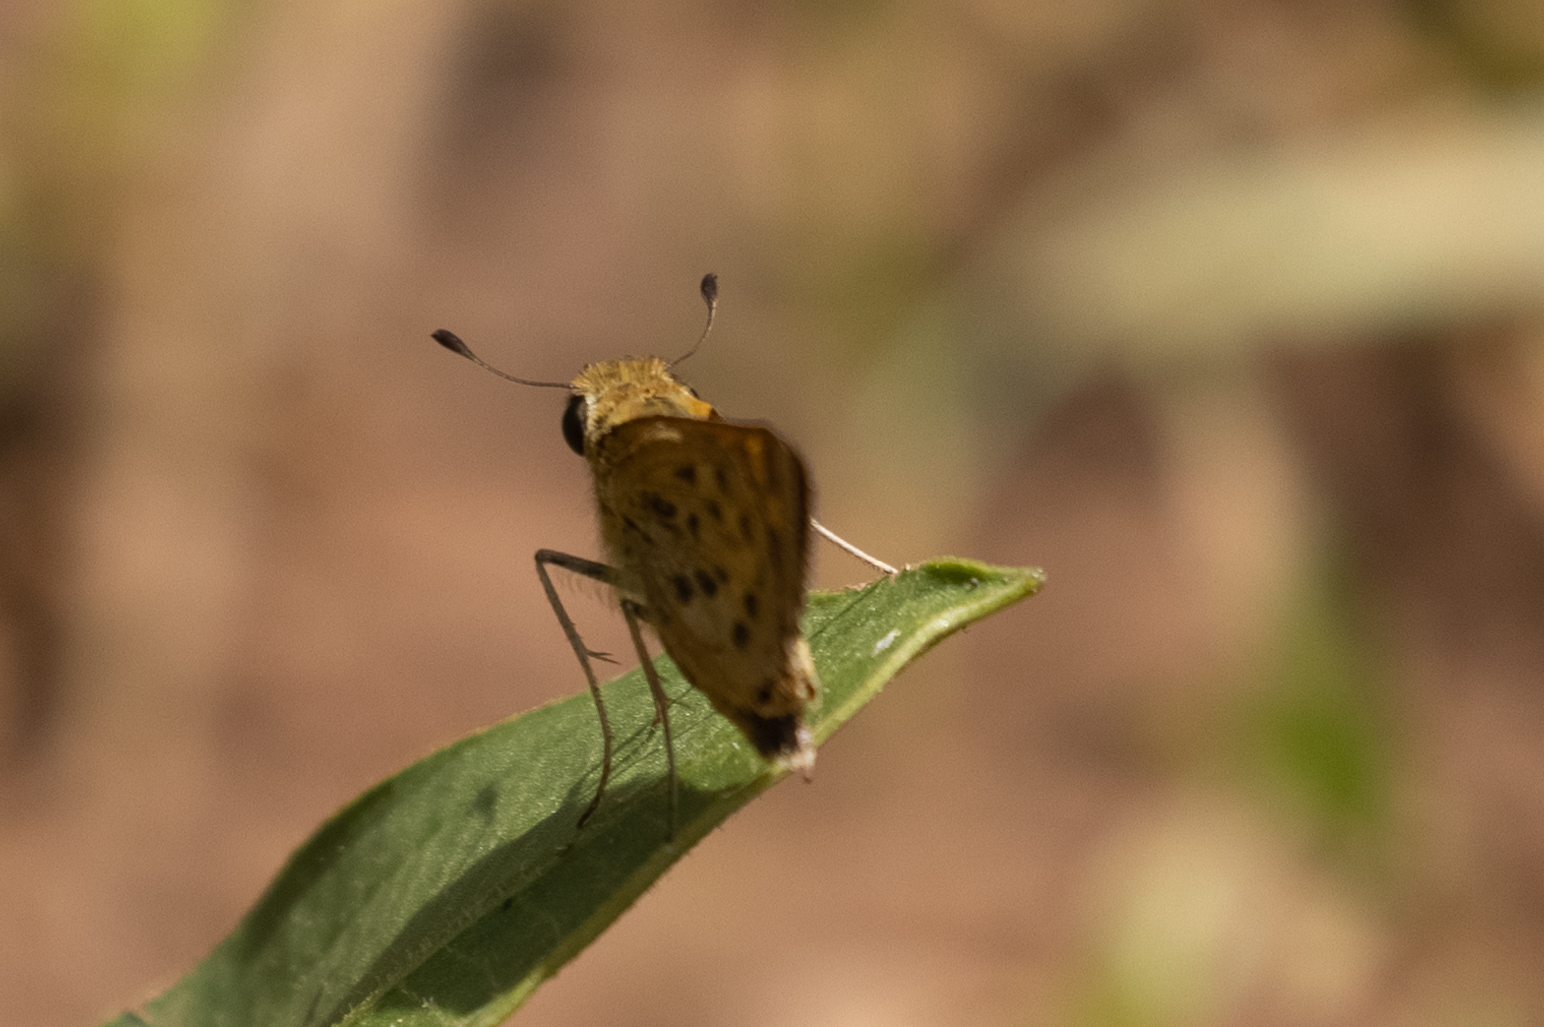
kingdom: Animalia
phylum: Arthropoda
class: Insecta
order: Lepidoptera
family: Hesperiidae
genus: Hylephila
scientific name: Hylephila phyleus
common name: Fiery skipper
